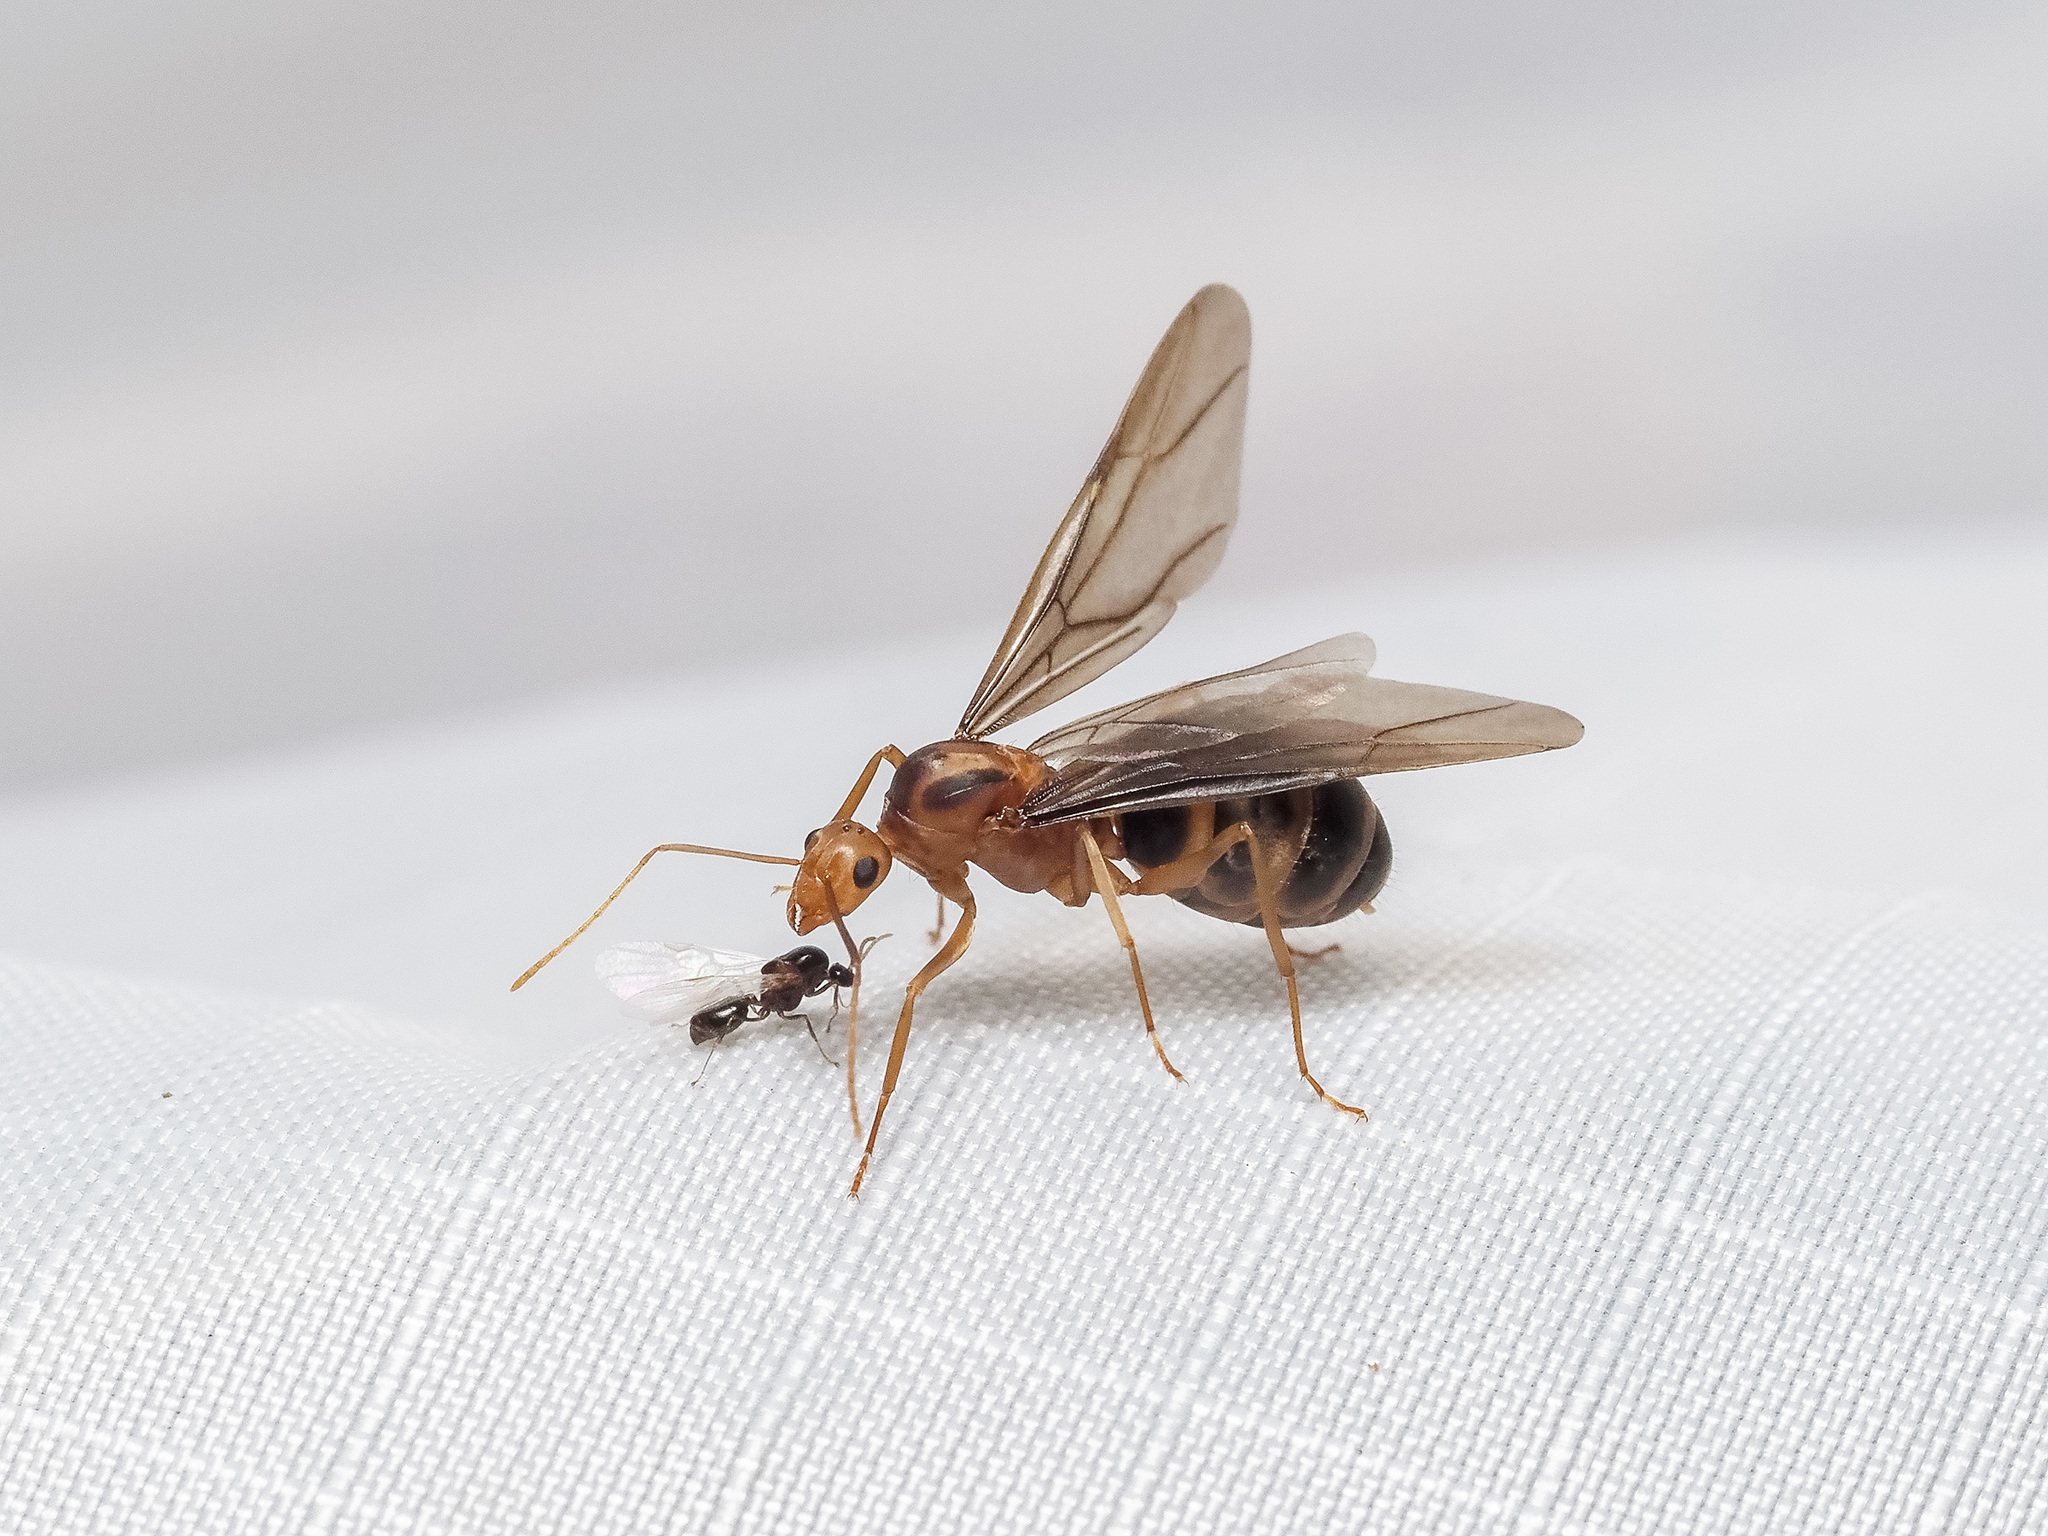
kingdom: Animalia
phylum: Arthropoda
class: Insecta
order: Hymenoptera
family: Formicidae
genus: Anoplolepis
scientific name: Anoplolepis gracilipes
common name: Ant
